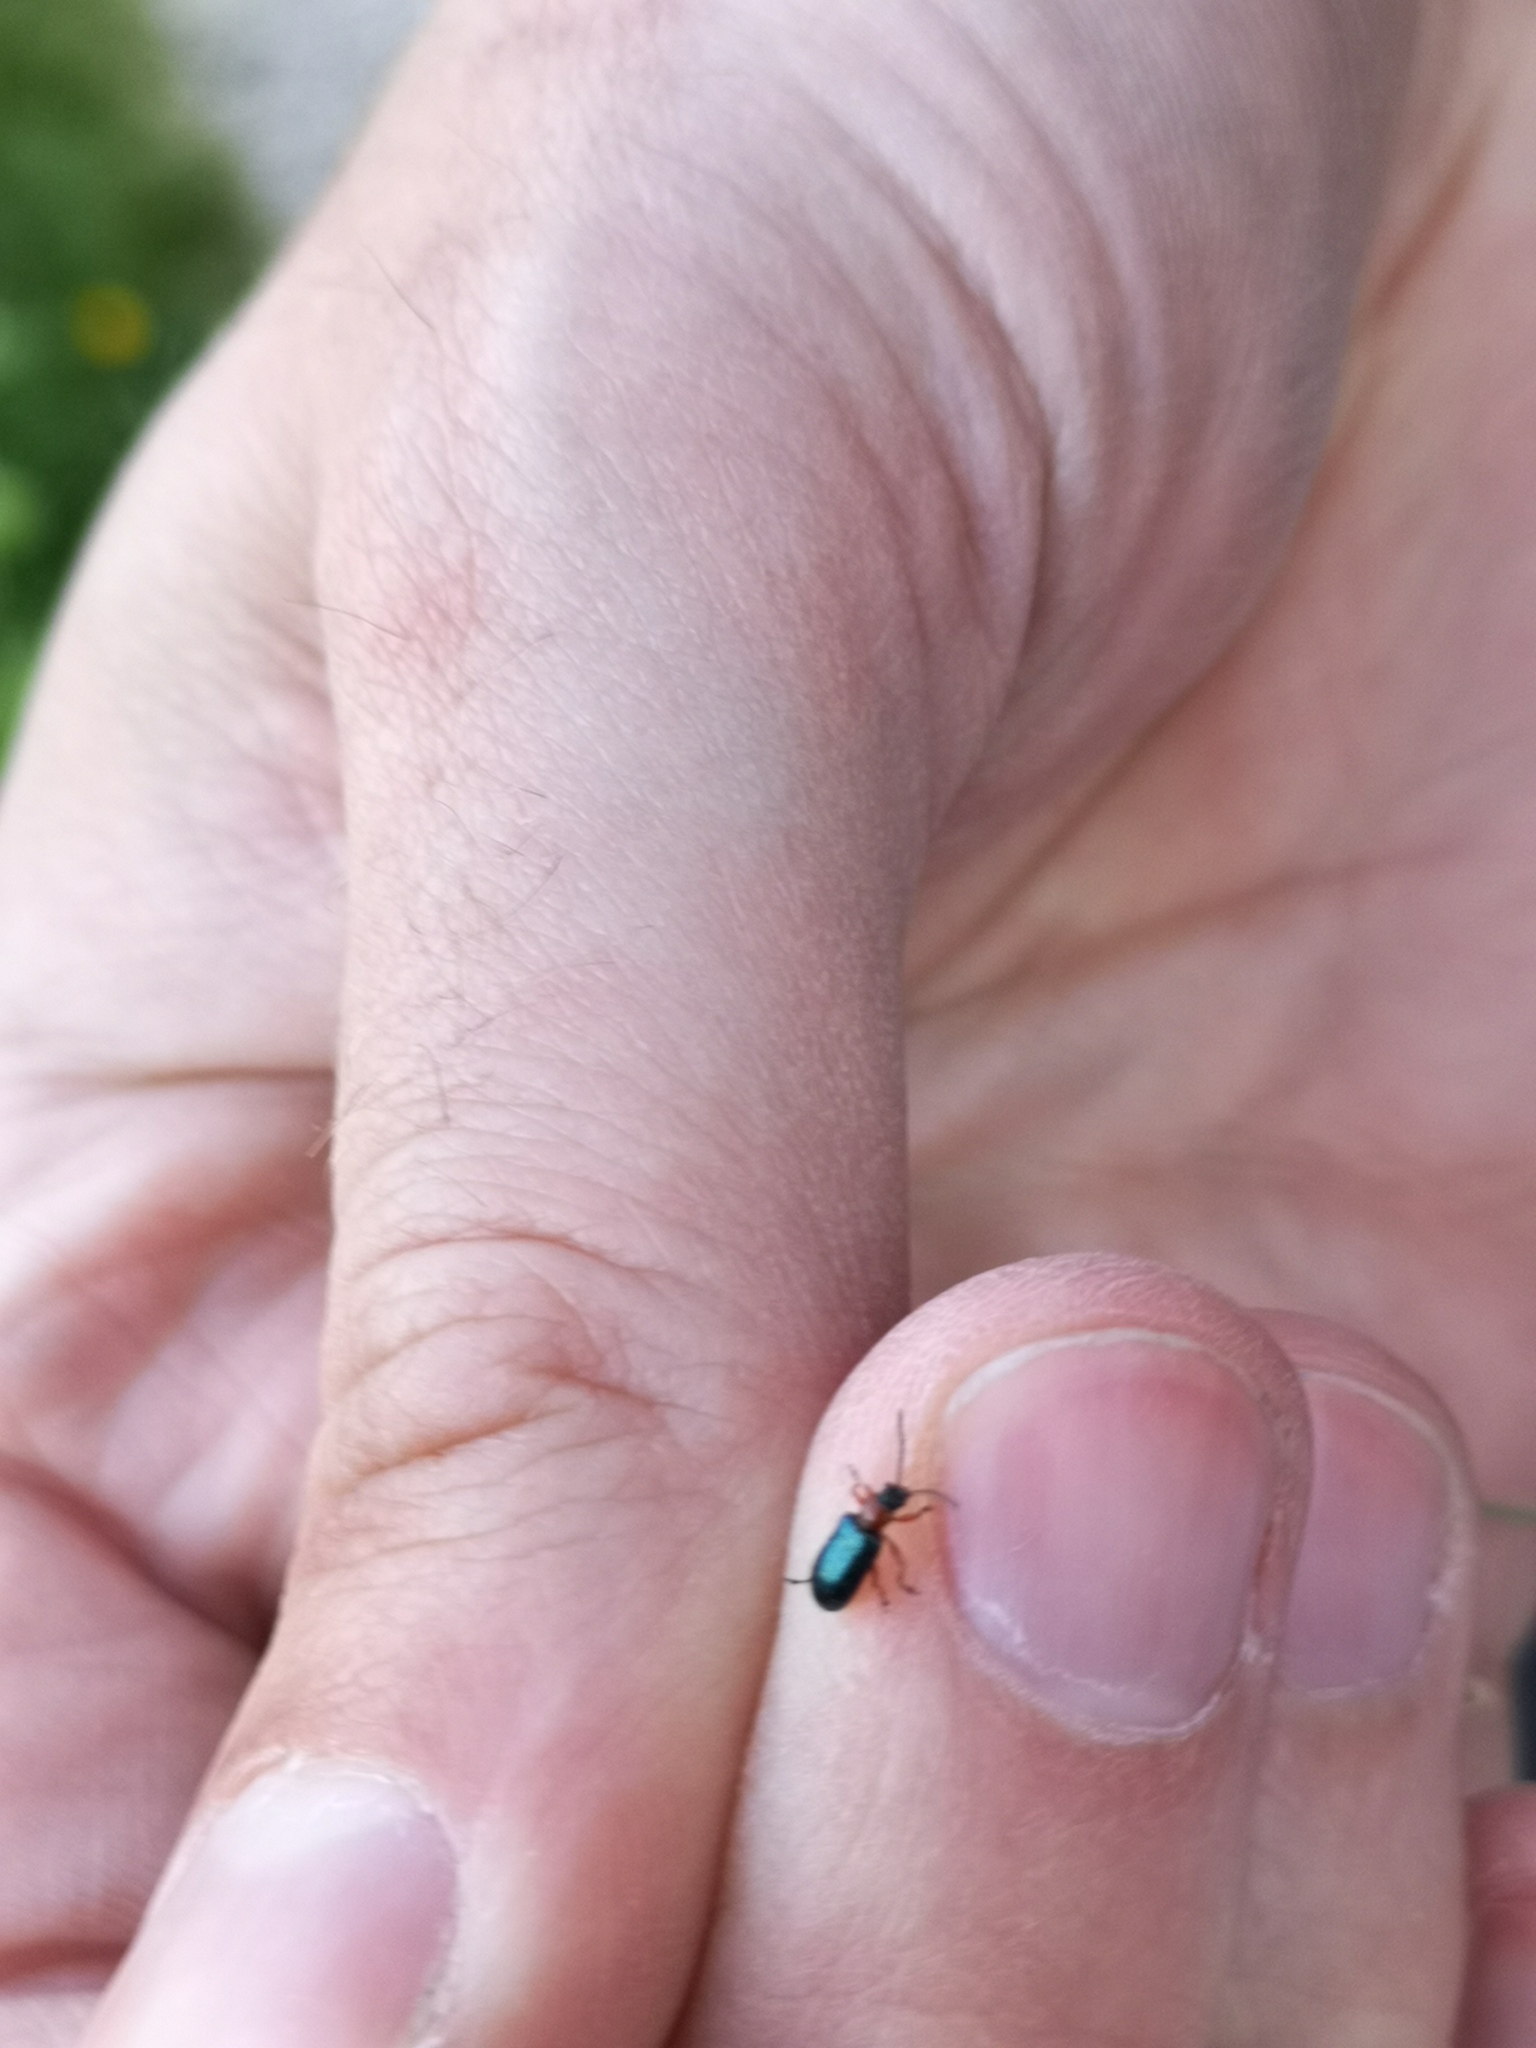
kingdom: Animalia
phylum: Arthropoda
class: Insecta
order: Coleoptera
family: Chrysomelidae
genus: Oulema
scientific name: Oulema
